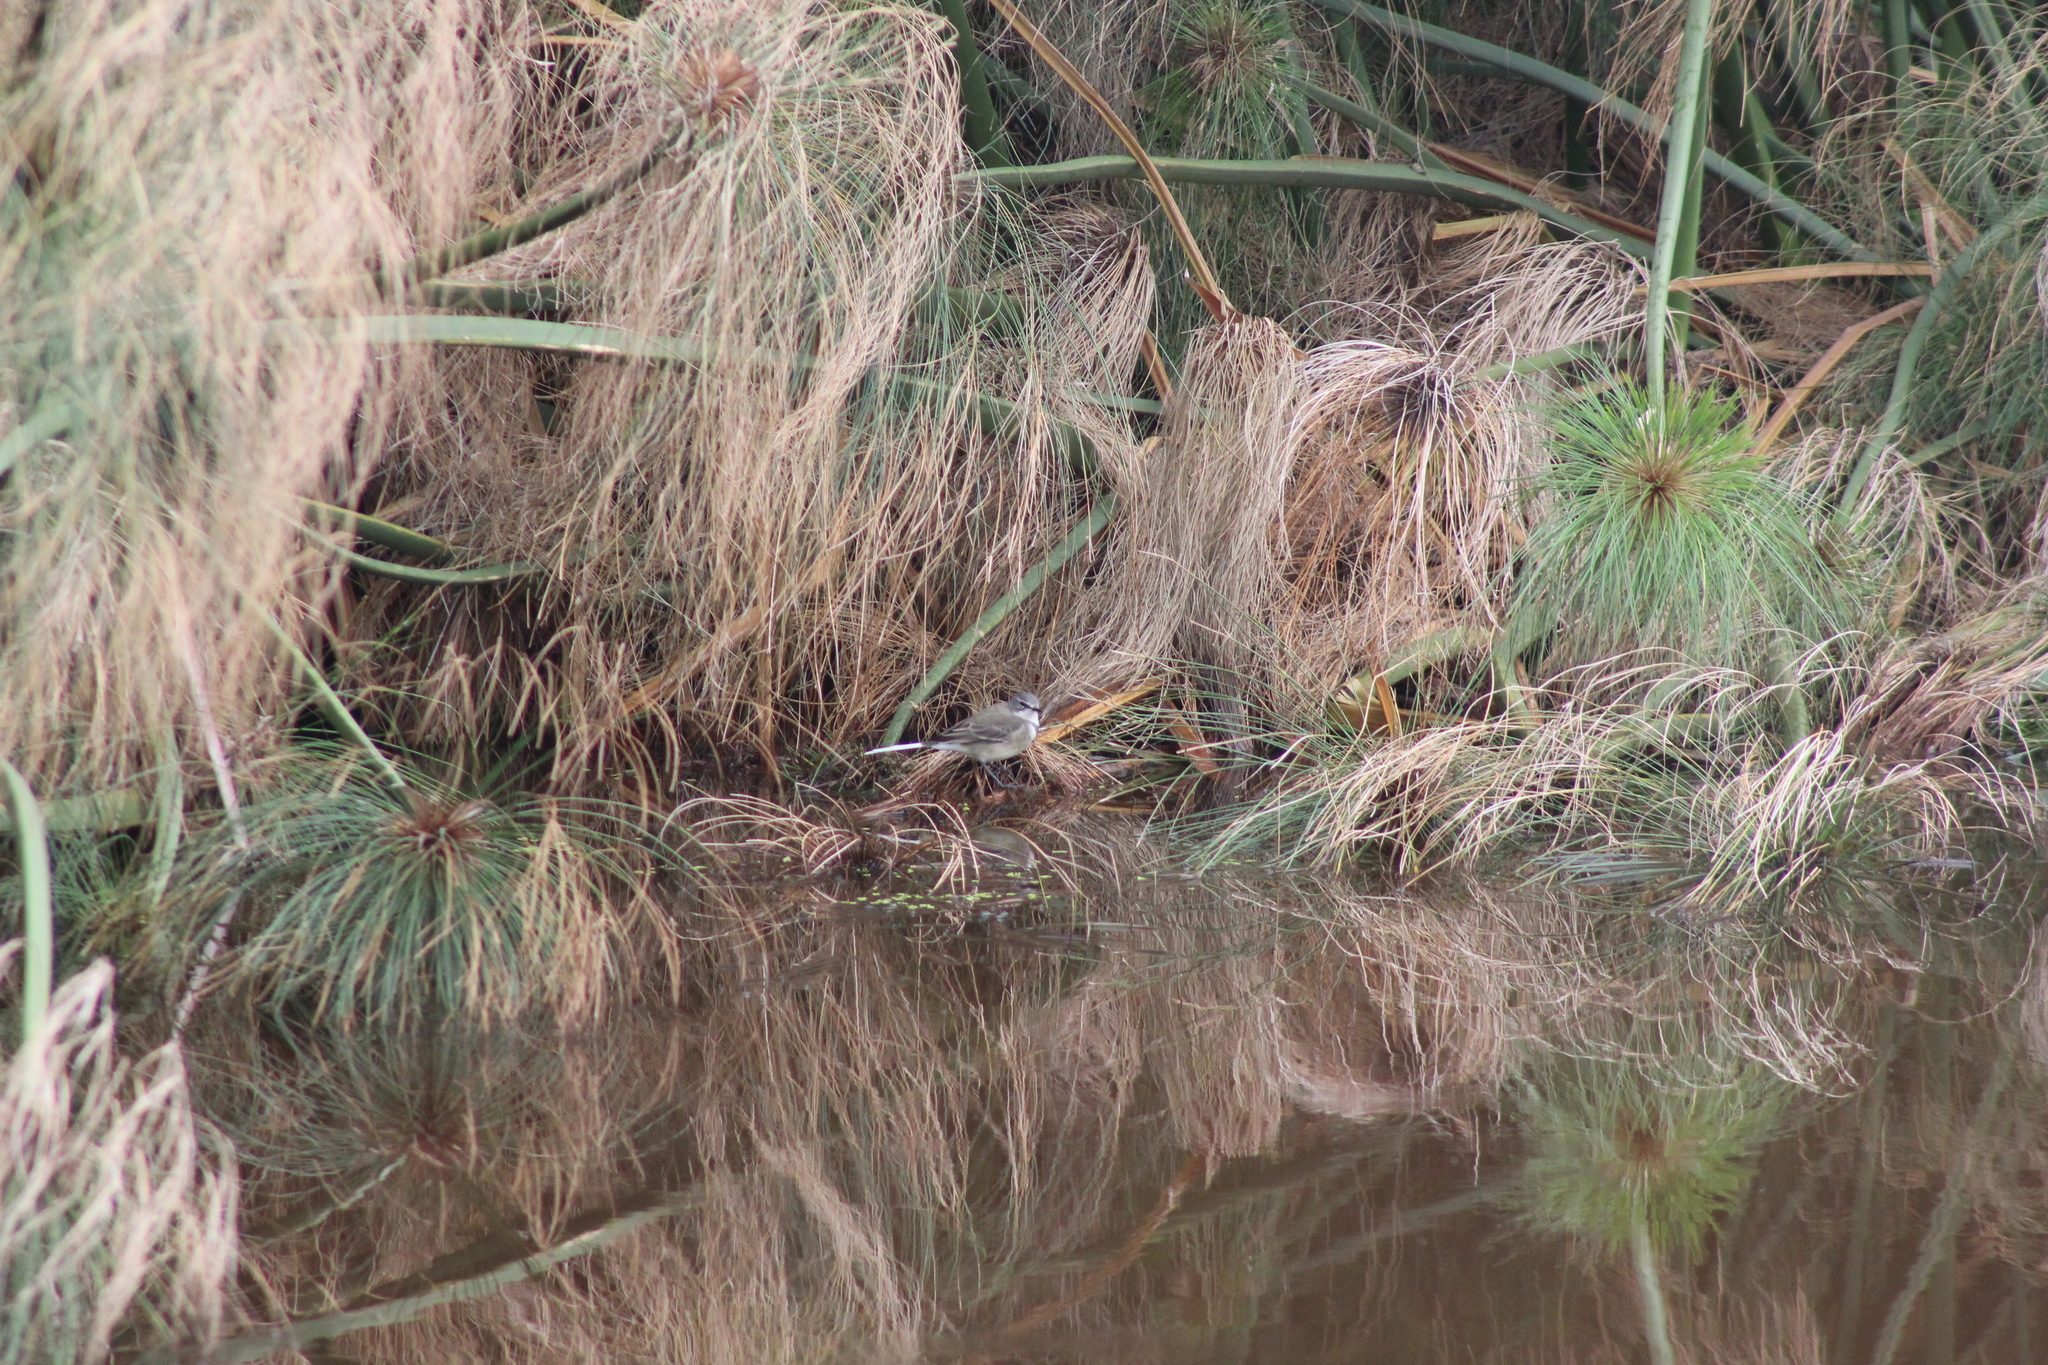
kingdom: Animalia
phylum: Chordata
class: Aves
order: Passeriformes
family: Motacillidae
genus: Motacilla
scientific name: Motacilla capensis
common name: Cape wagtail
